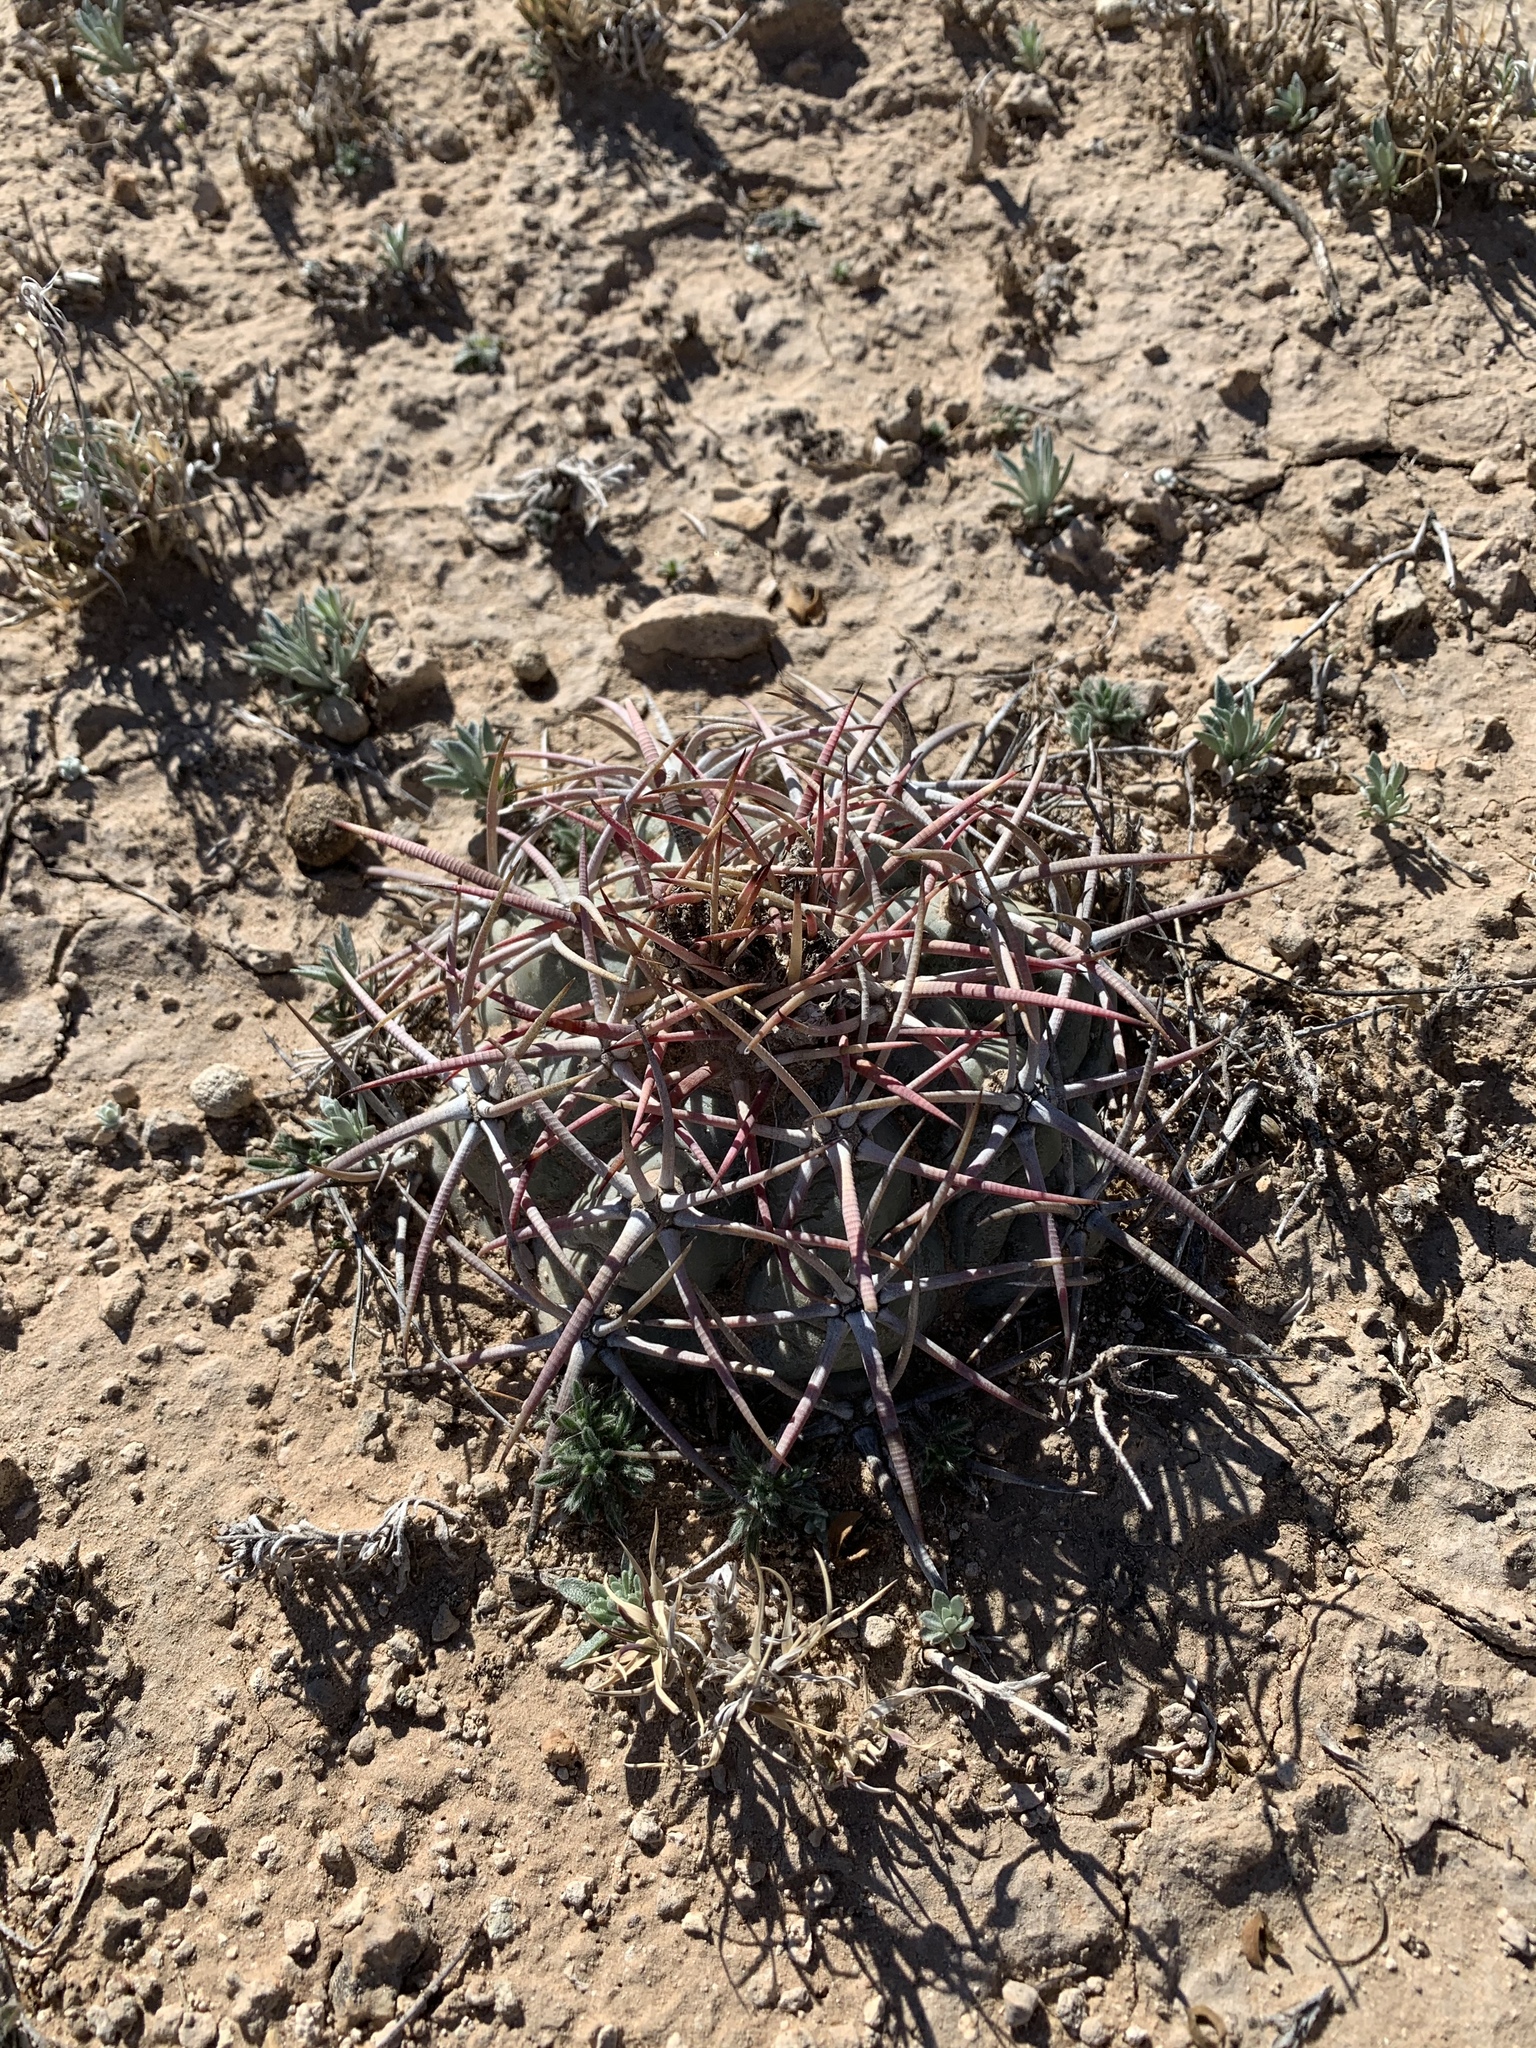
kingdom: Plantae
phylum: Tracheophyta
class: Magnoliopsida
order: Caryophyllales
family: Cactaceae
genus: Echinocactus
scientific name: Echinocactus horizonthalonius
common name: Devilshead
